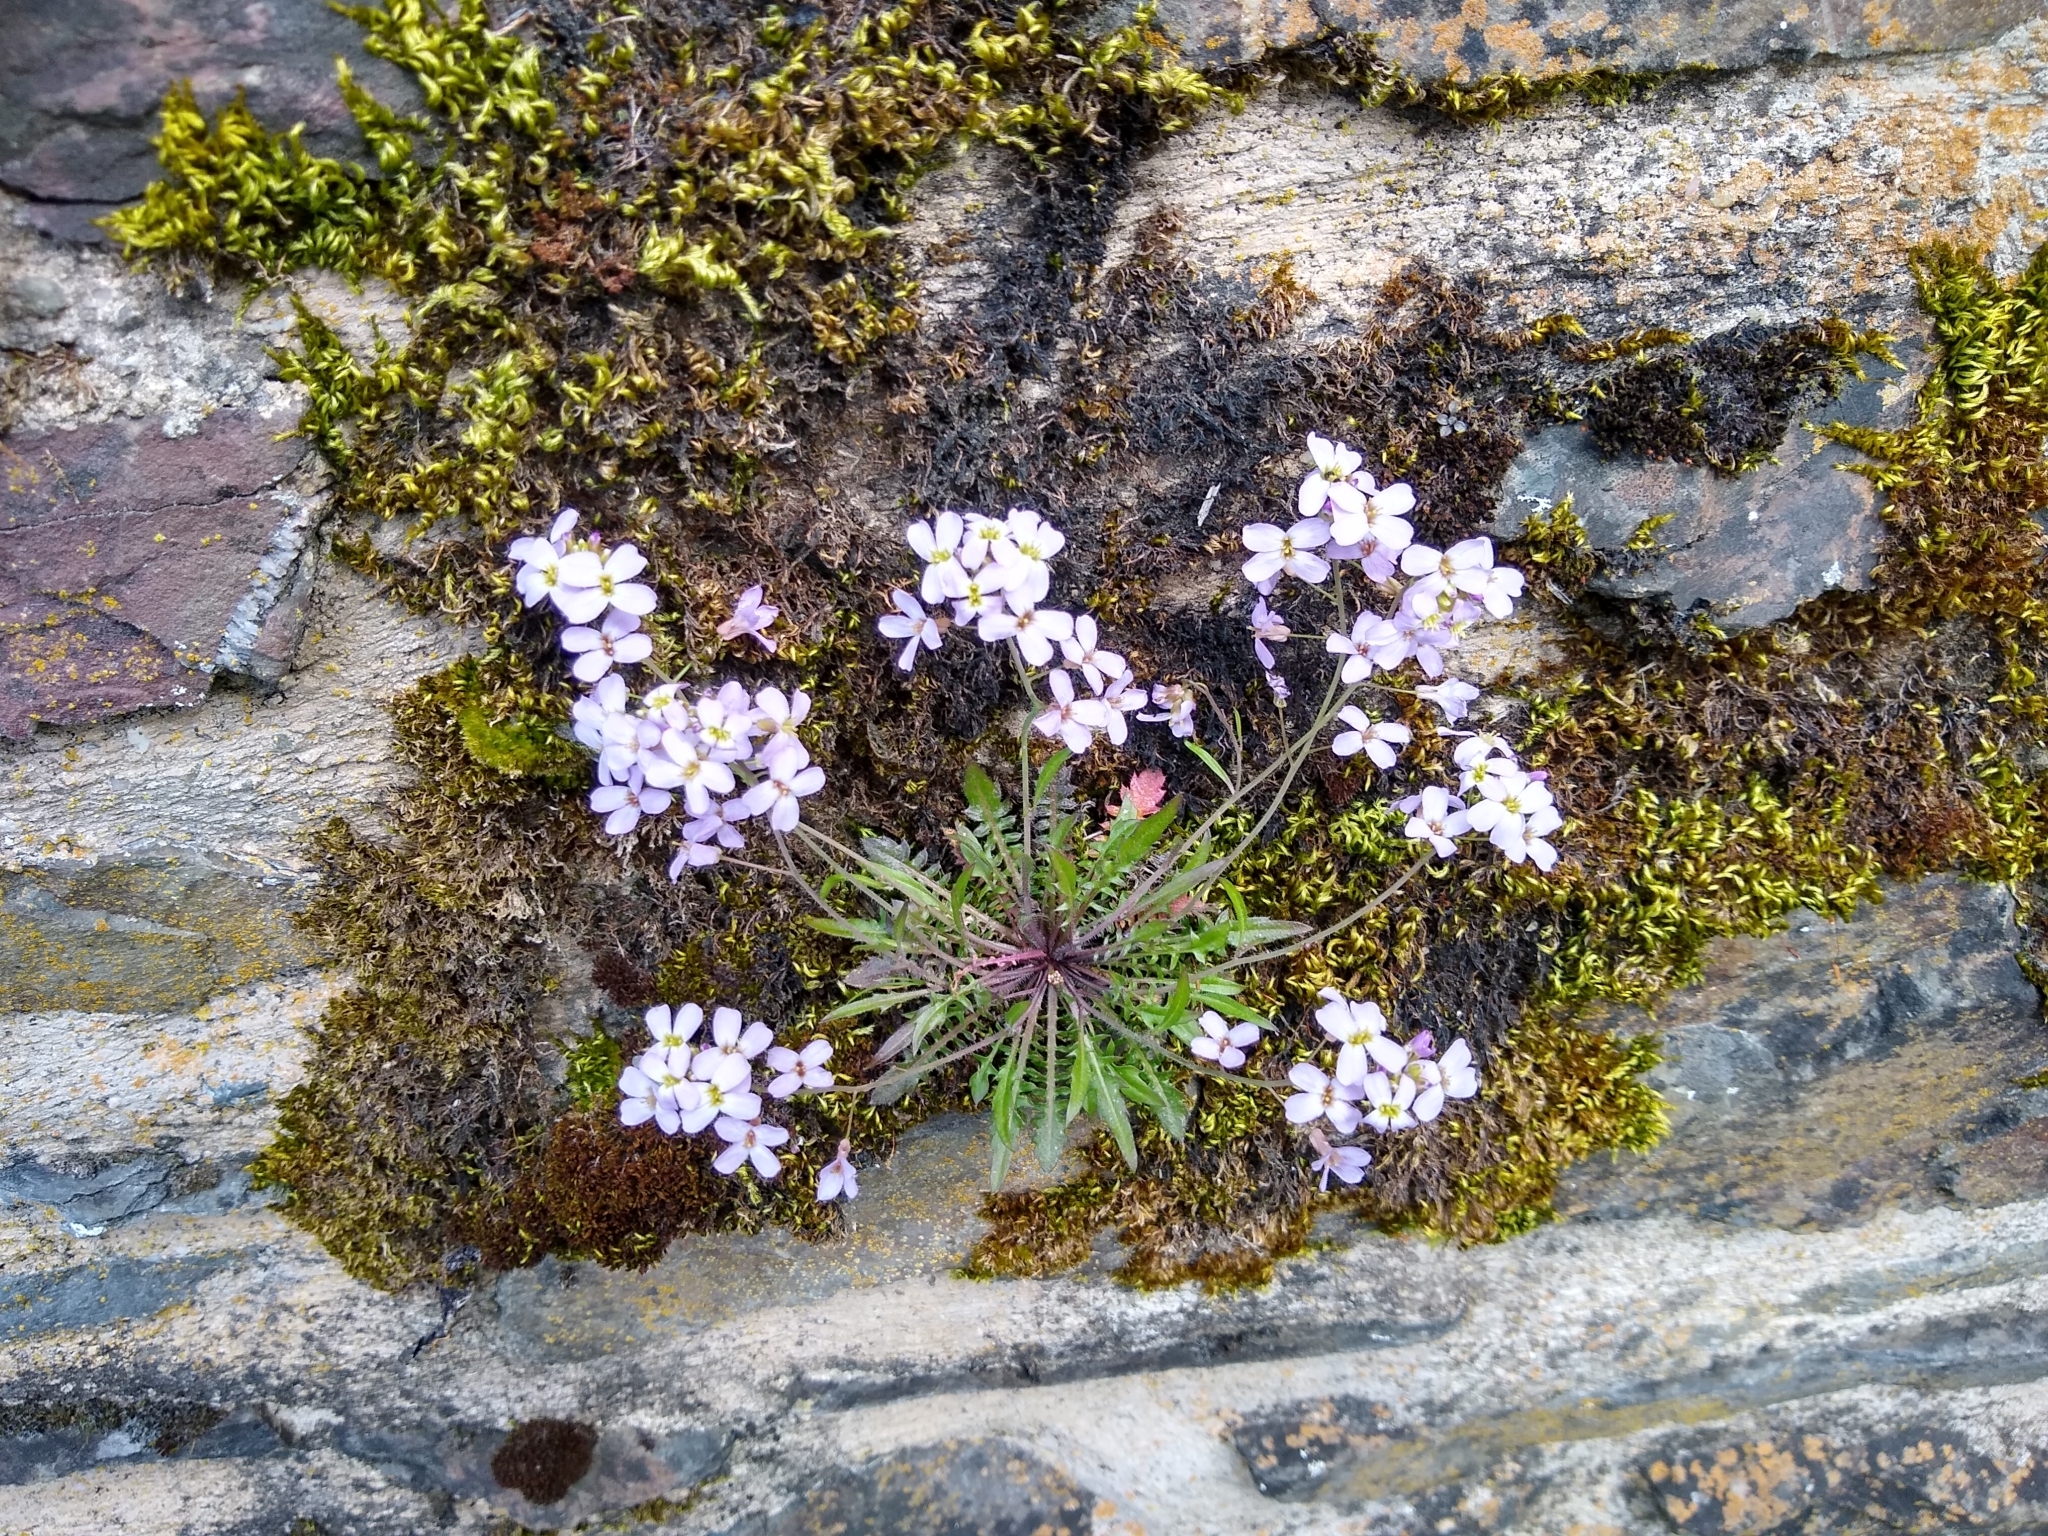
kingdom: Plantae
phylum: Tracheophyta
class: Magnoliopsida
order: Brassicales
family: Brassicaceae
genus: Arabidopsis
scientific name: Arabidopsis arenosa
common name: Sand rock-cress
